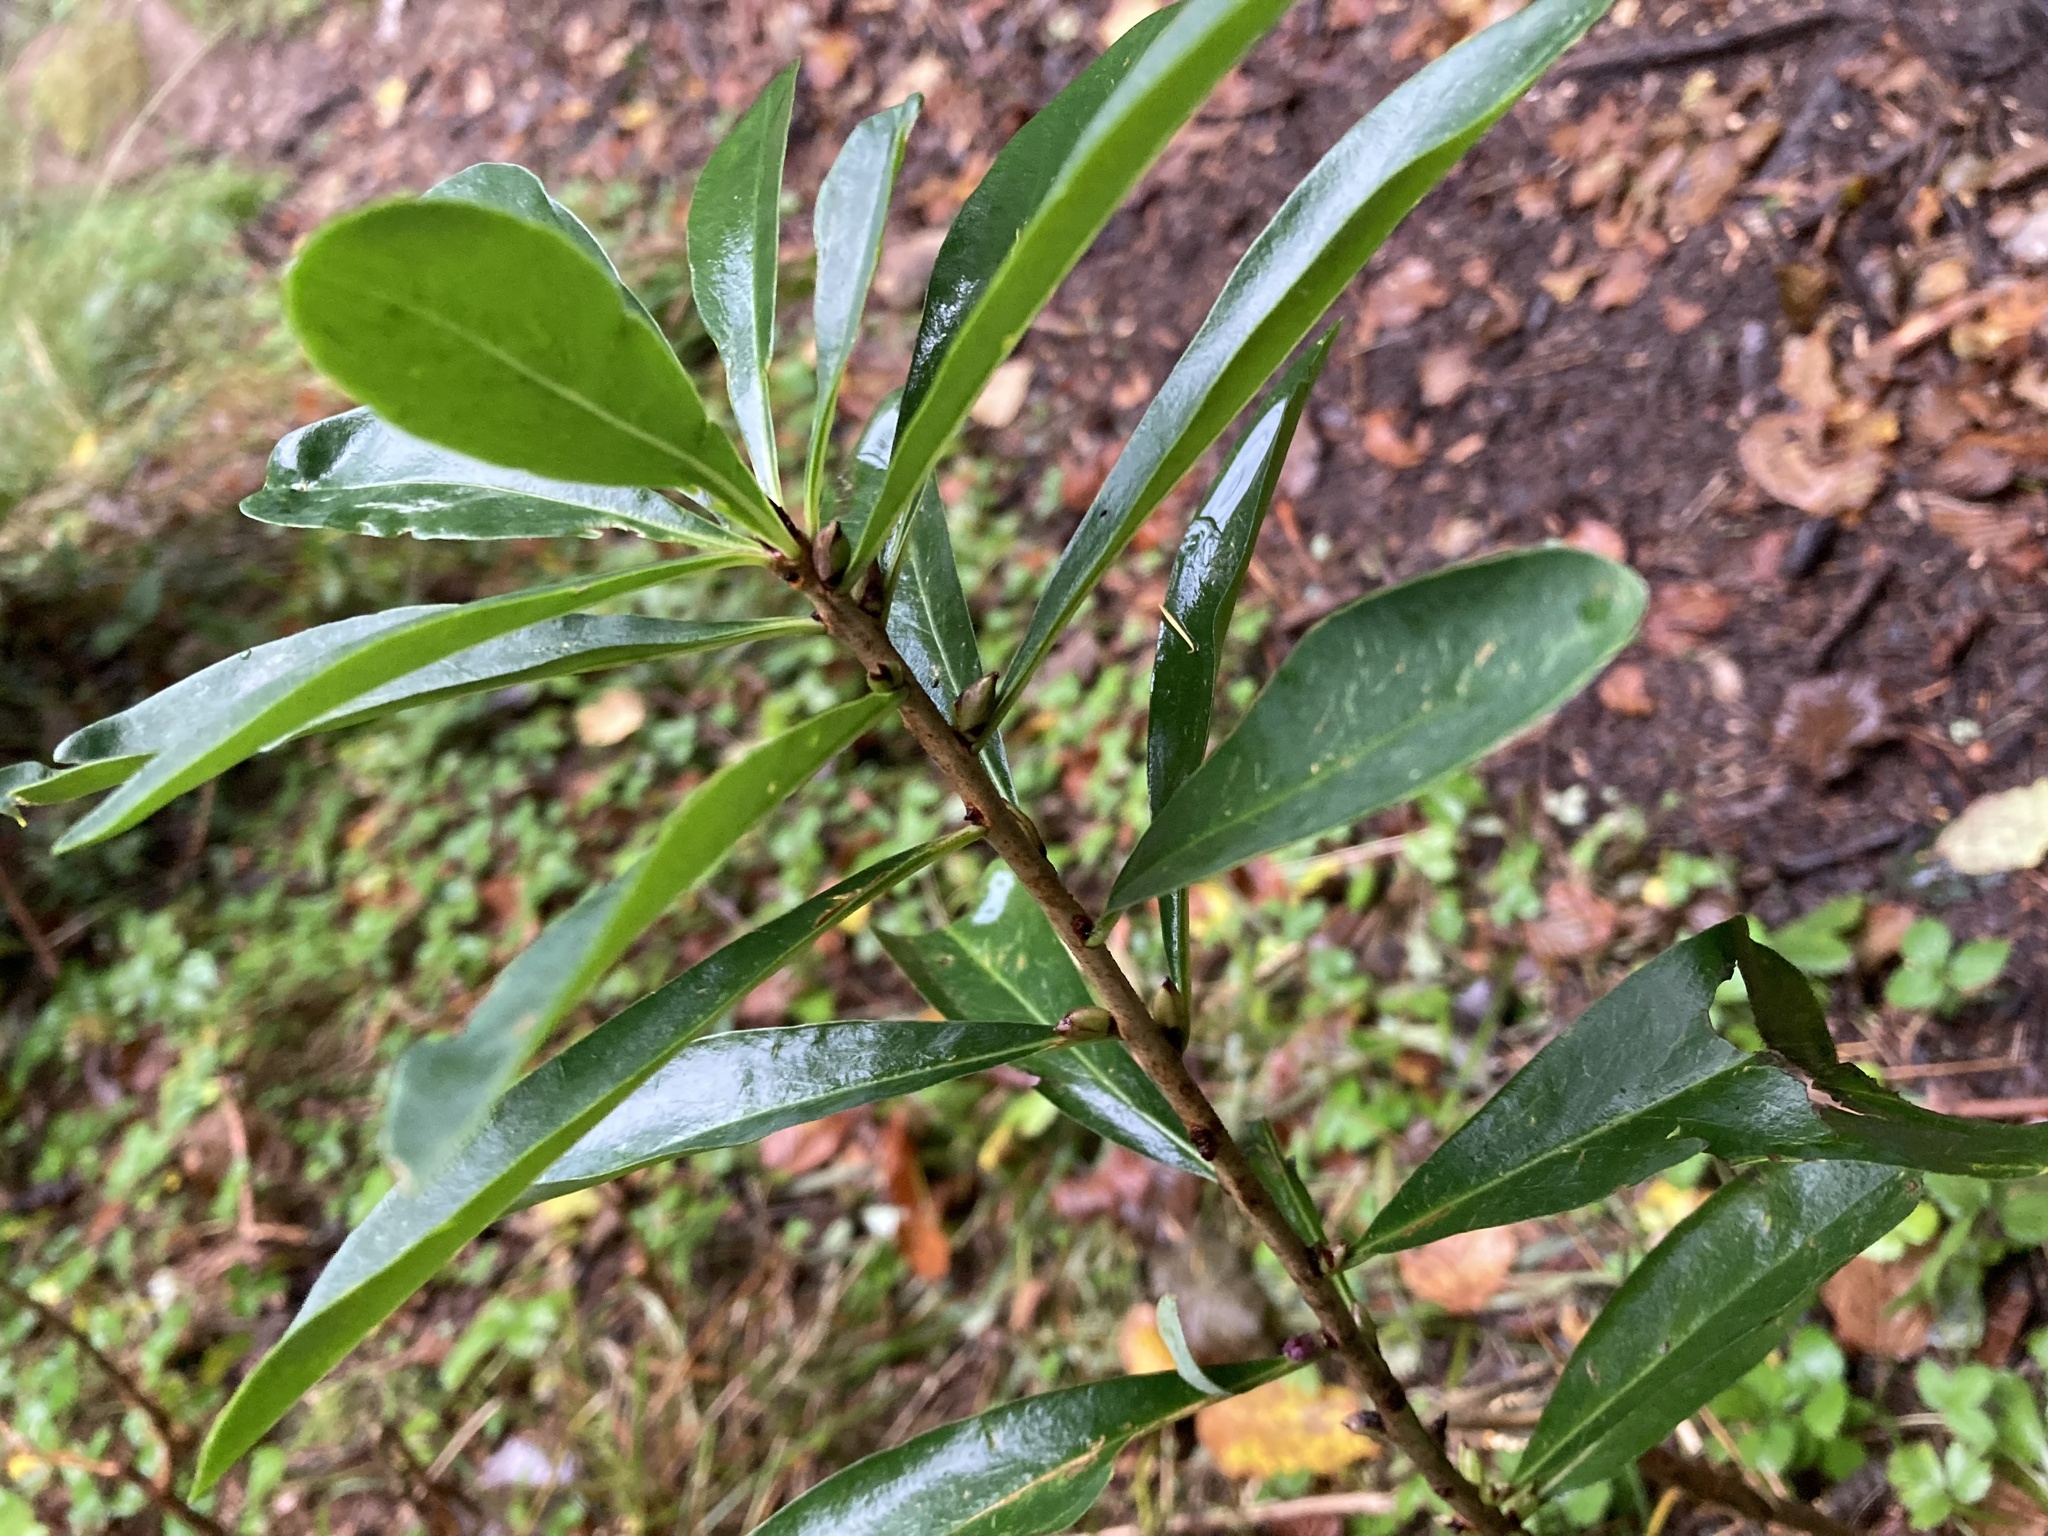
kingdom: Plantae
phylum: Tracheophyta
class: Magnoliopsida
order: Malvales
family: Thymelaeaceae
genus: Daphne
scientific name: Daphne mezereum
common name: Mezereon
